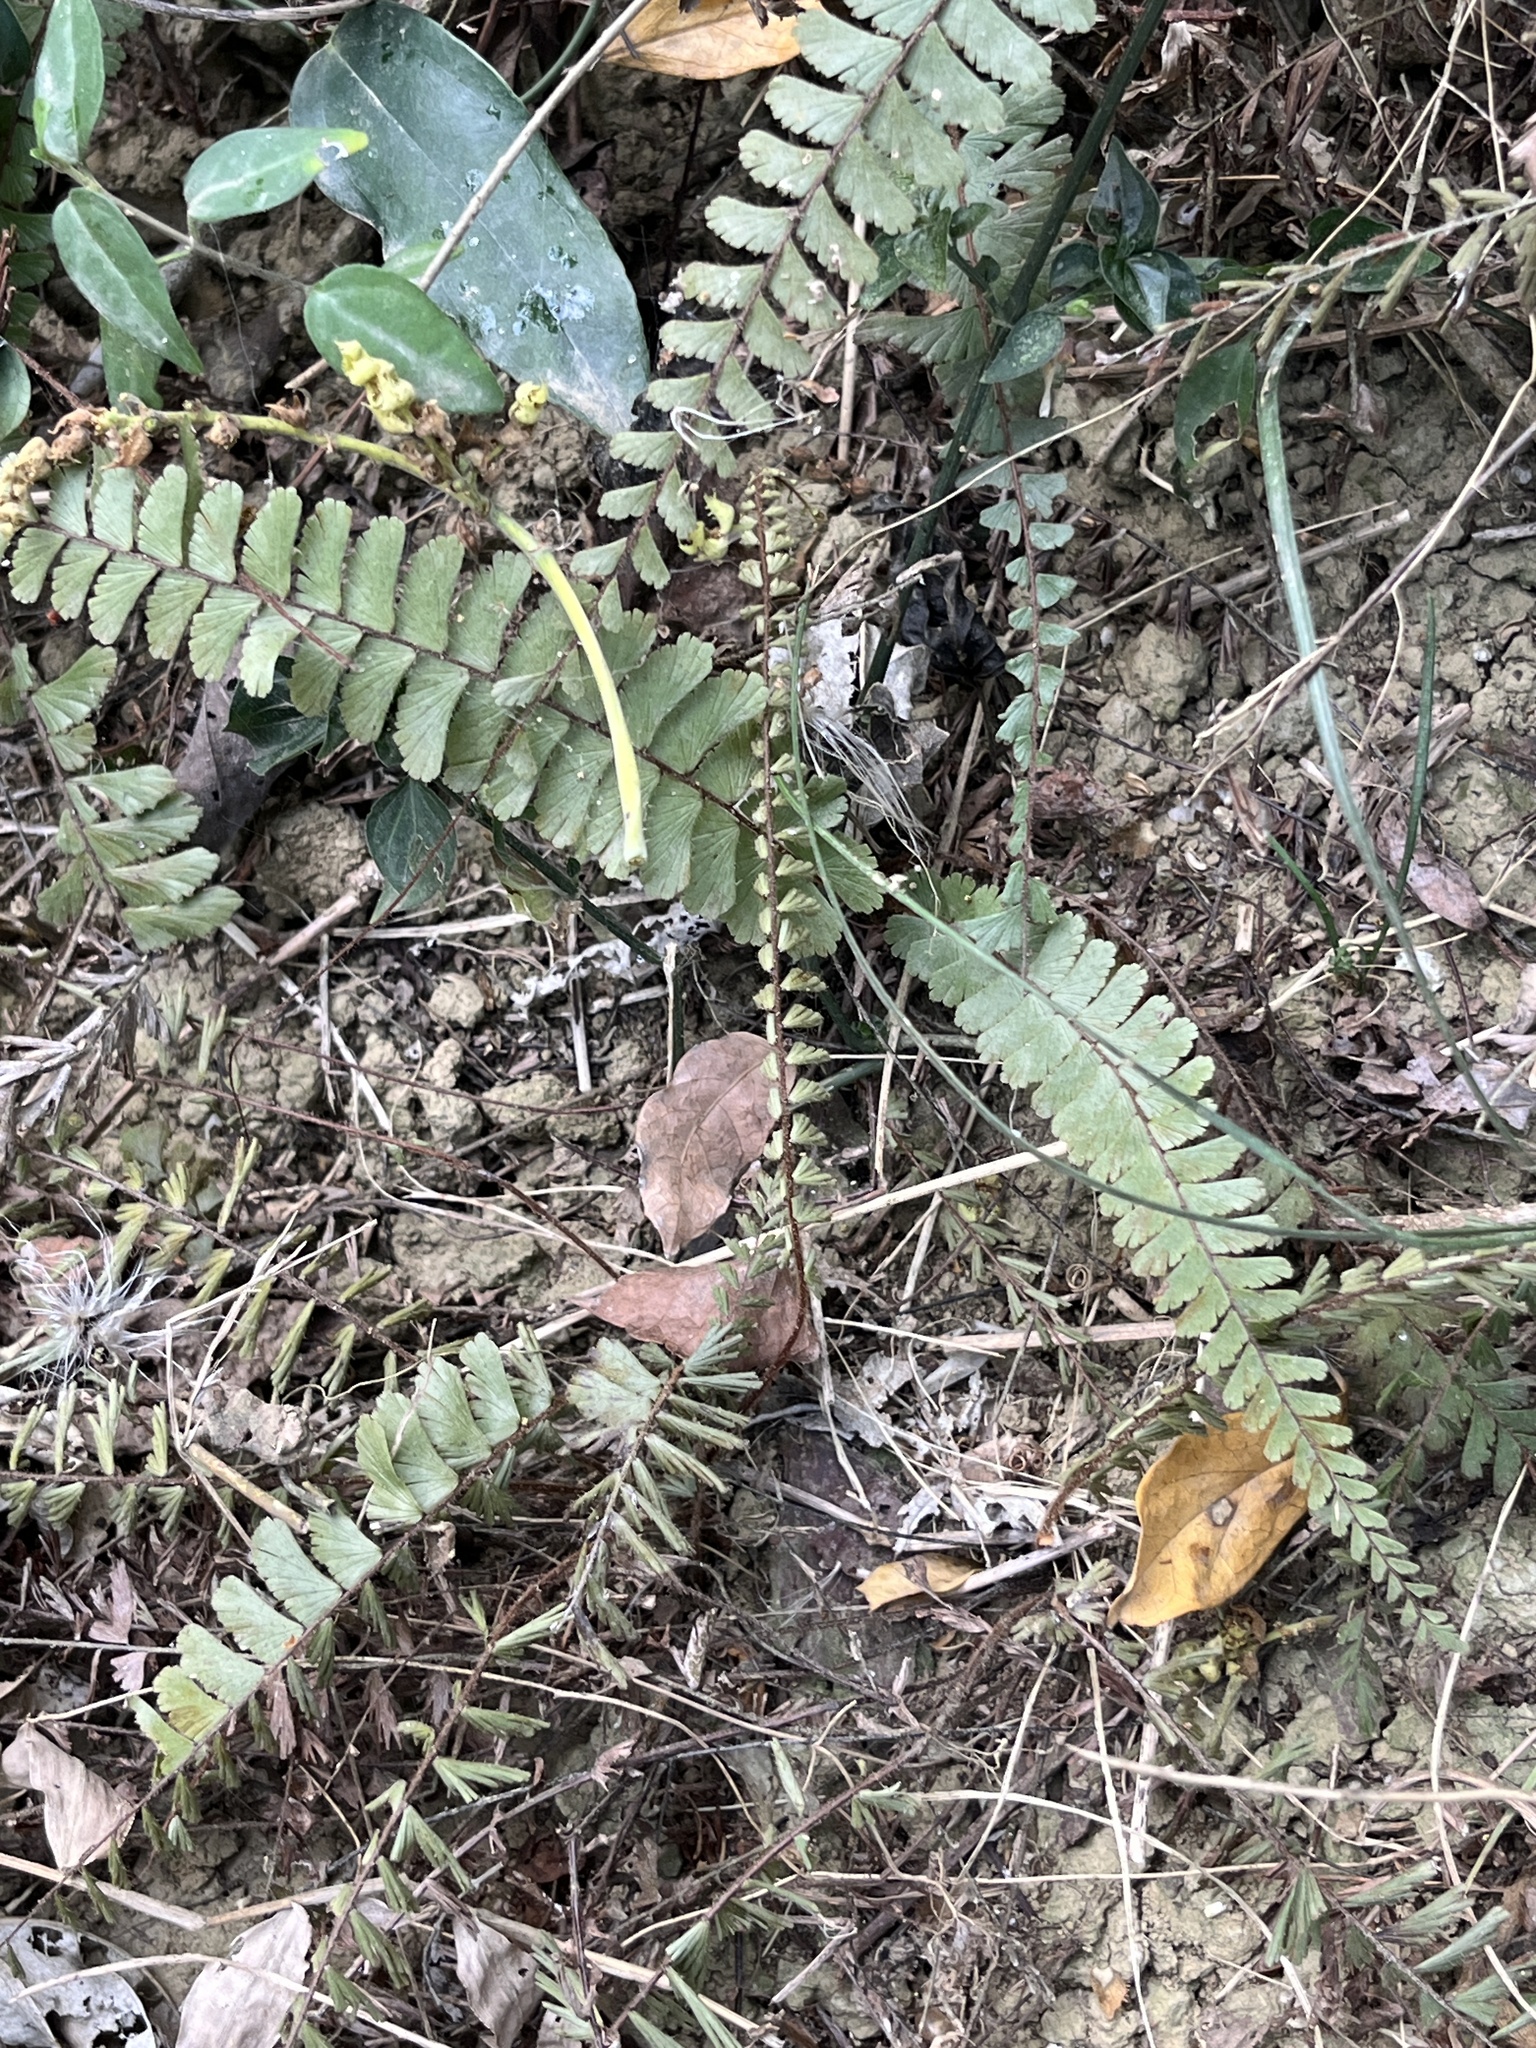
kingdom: Plantae
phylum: Tracheophyta
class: Polypodiopsida
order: Polypodiales
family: Pteridaceae
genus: Adiantum
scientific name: Adiantum caudatum
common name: Tailed maidenhair
